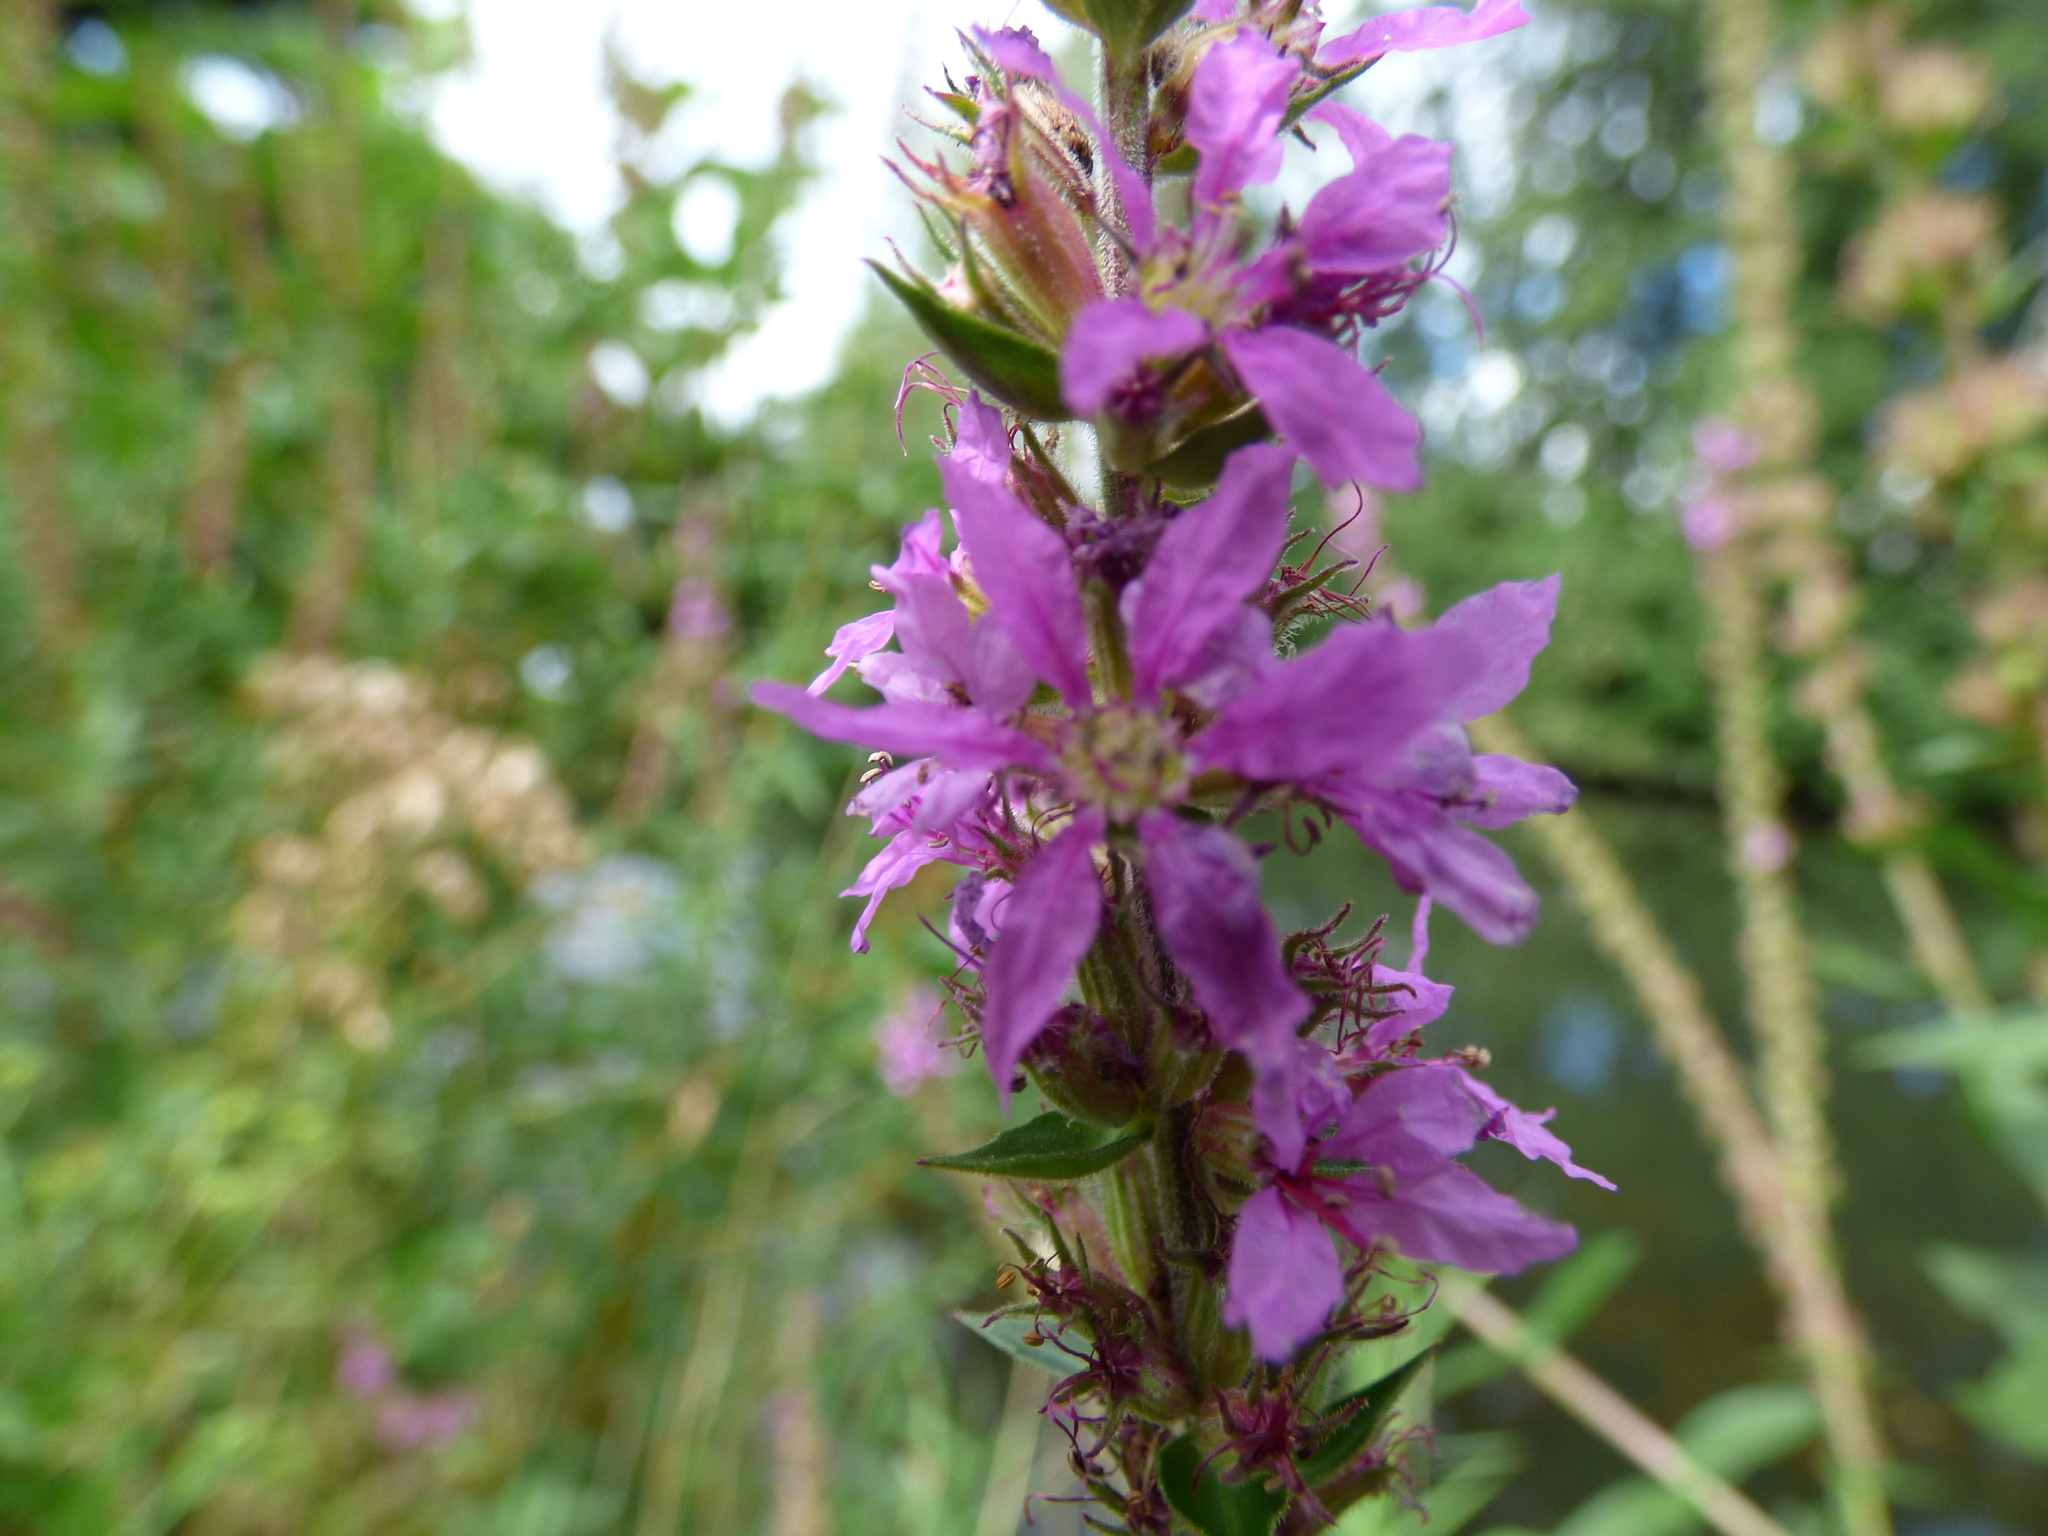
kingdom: Plantae
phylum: Tracheophyta
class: Magnoliopsida
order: Myrtales
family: Lythraceae
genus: Lythrum
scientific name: Lythrum salicaria
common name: Purple loosestrife
